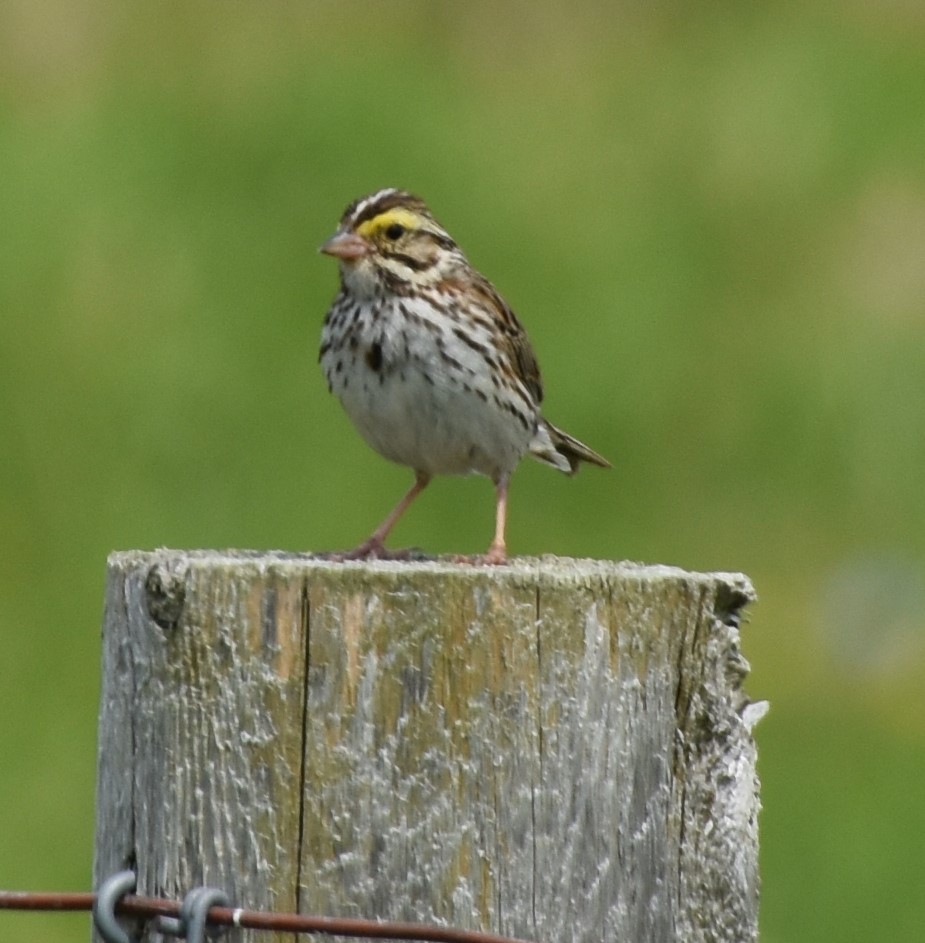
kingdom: Animalia
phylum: Chordata
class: Aves
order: Passeriformes
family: Passerellidae
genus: Passerculus
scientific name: Passerculus sandwichensis
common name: Savannah sparrow
